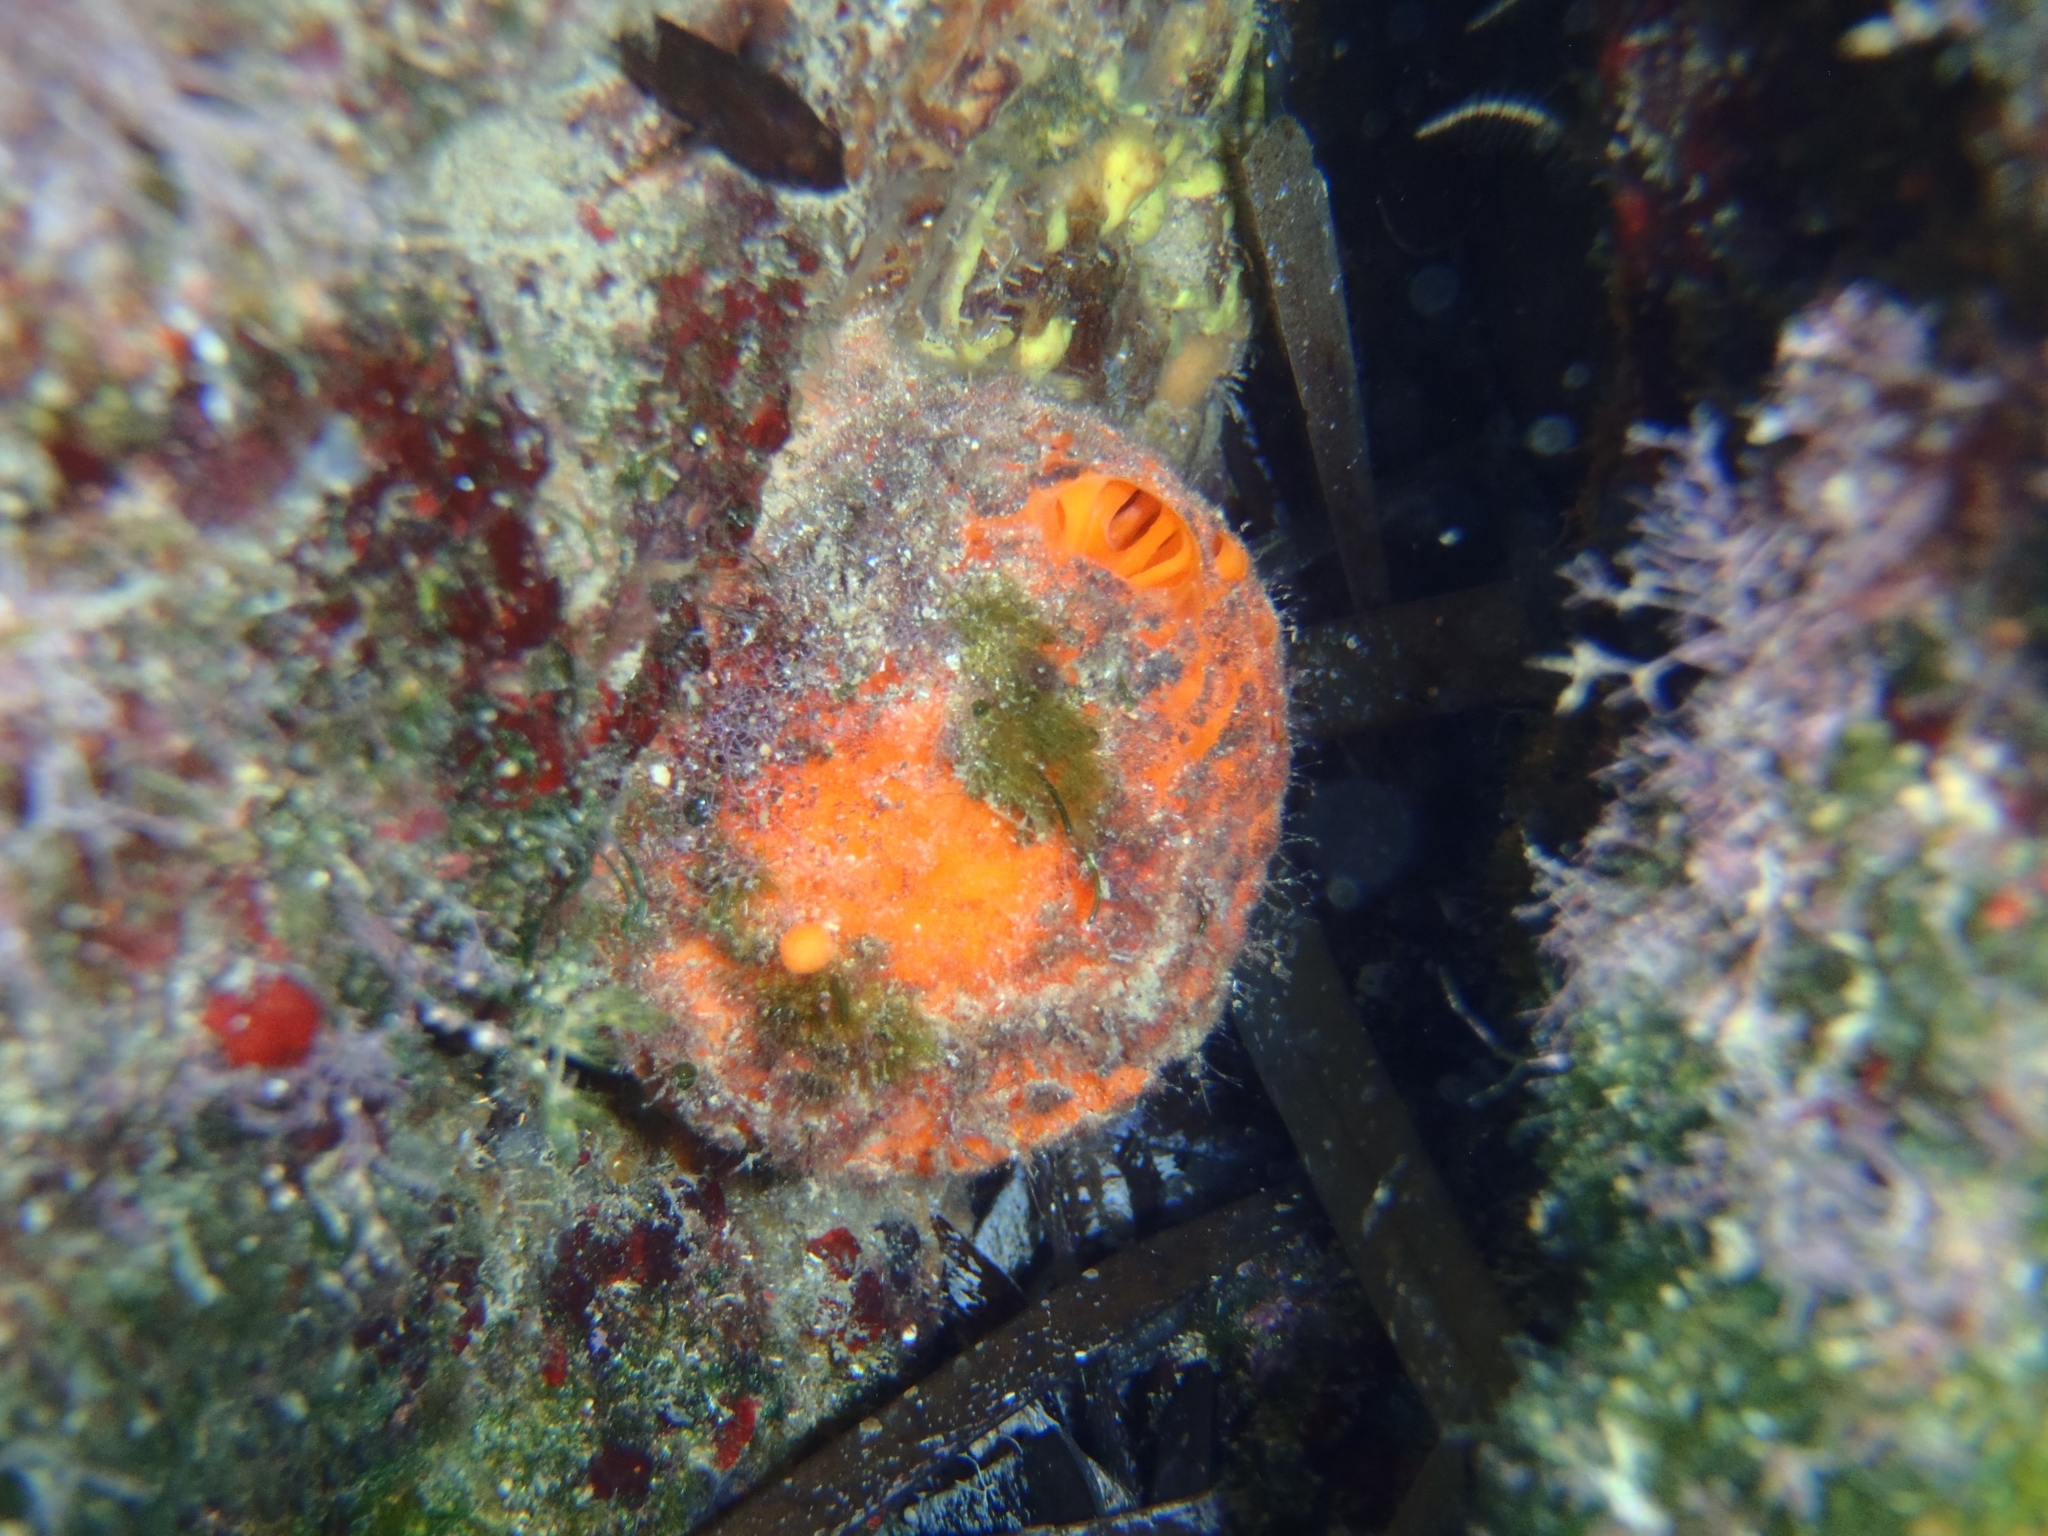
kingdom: Animalia
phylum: Porifera
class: Demospongiae
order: Tethyida
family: Tethyidae
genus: Tethya
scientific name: Tethya aurantium
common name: Golf ball sponge
